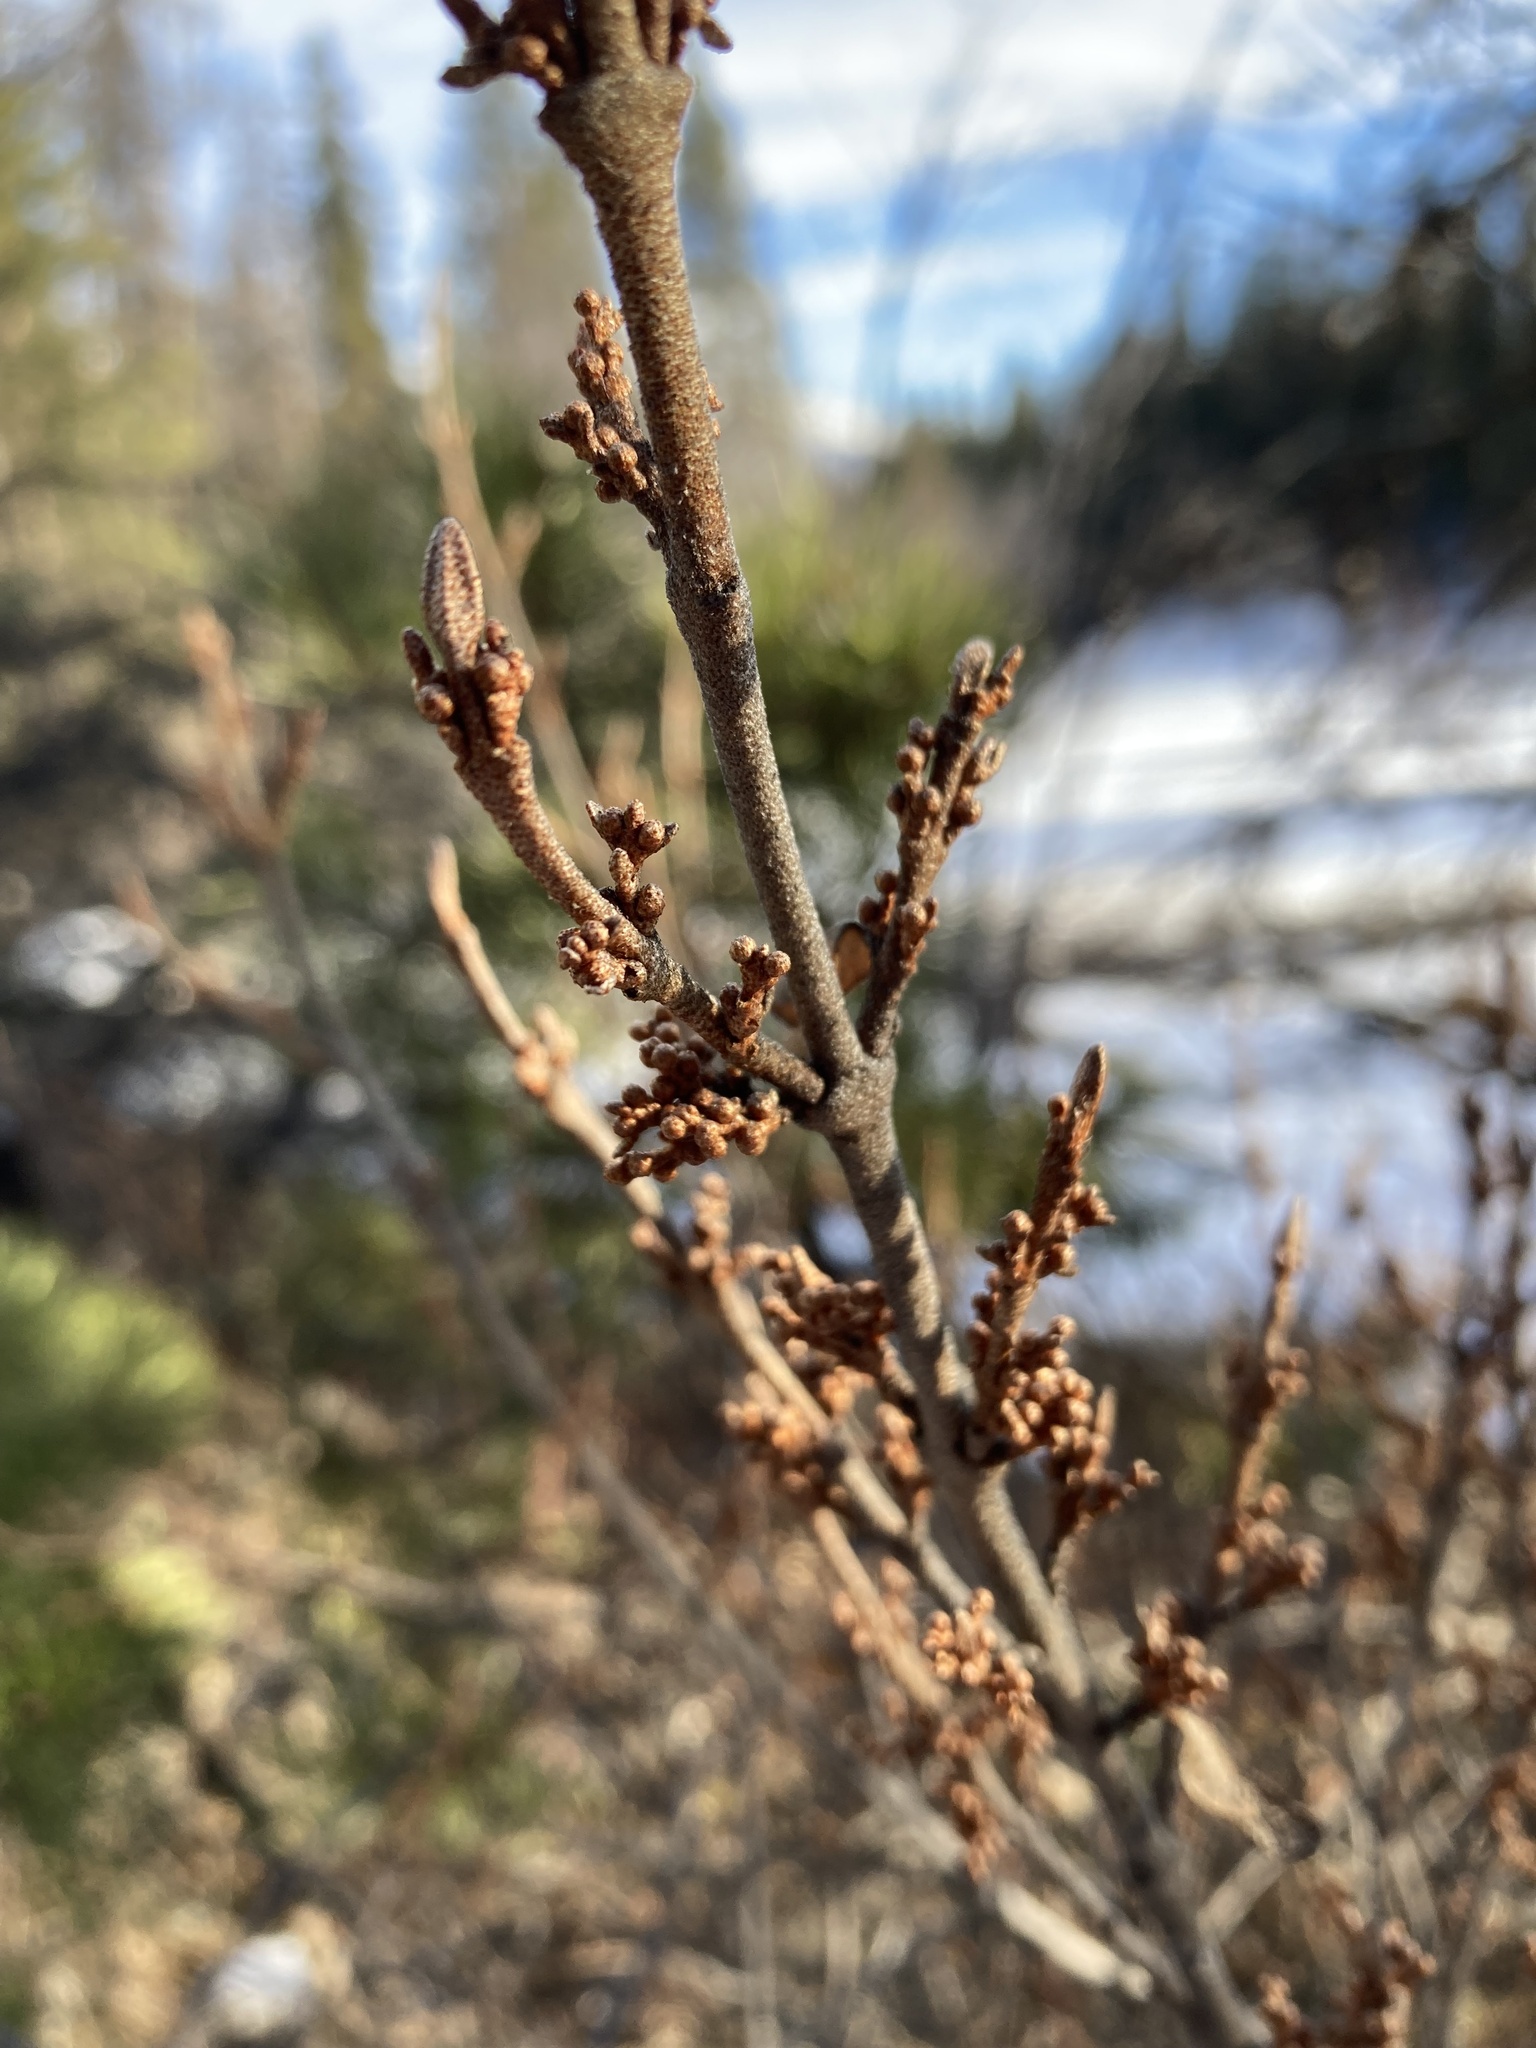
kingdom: Plantae
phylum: Tracheophyta
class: Magnoliopsida
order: Rosales
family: Elaeagnaceae
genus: Shepherdia
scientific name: Shepherdia canadensis
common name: Soapberry
